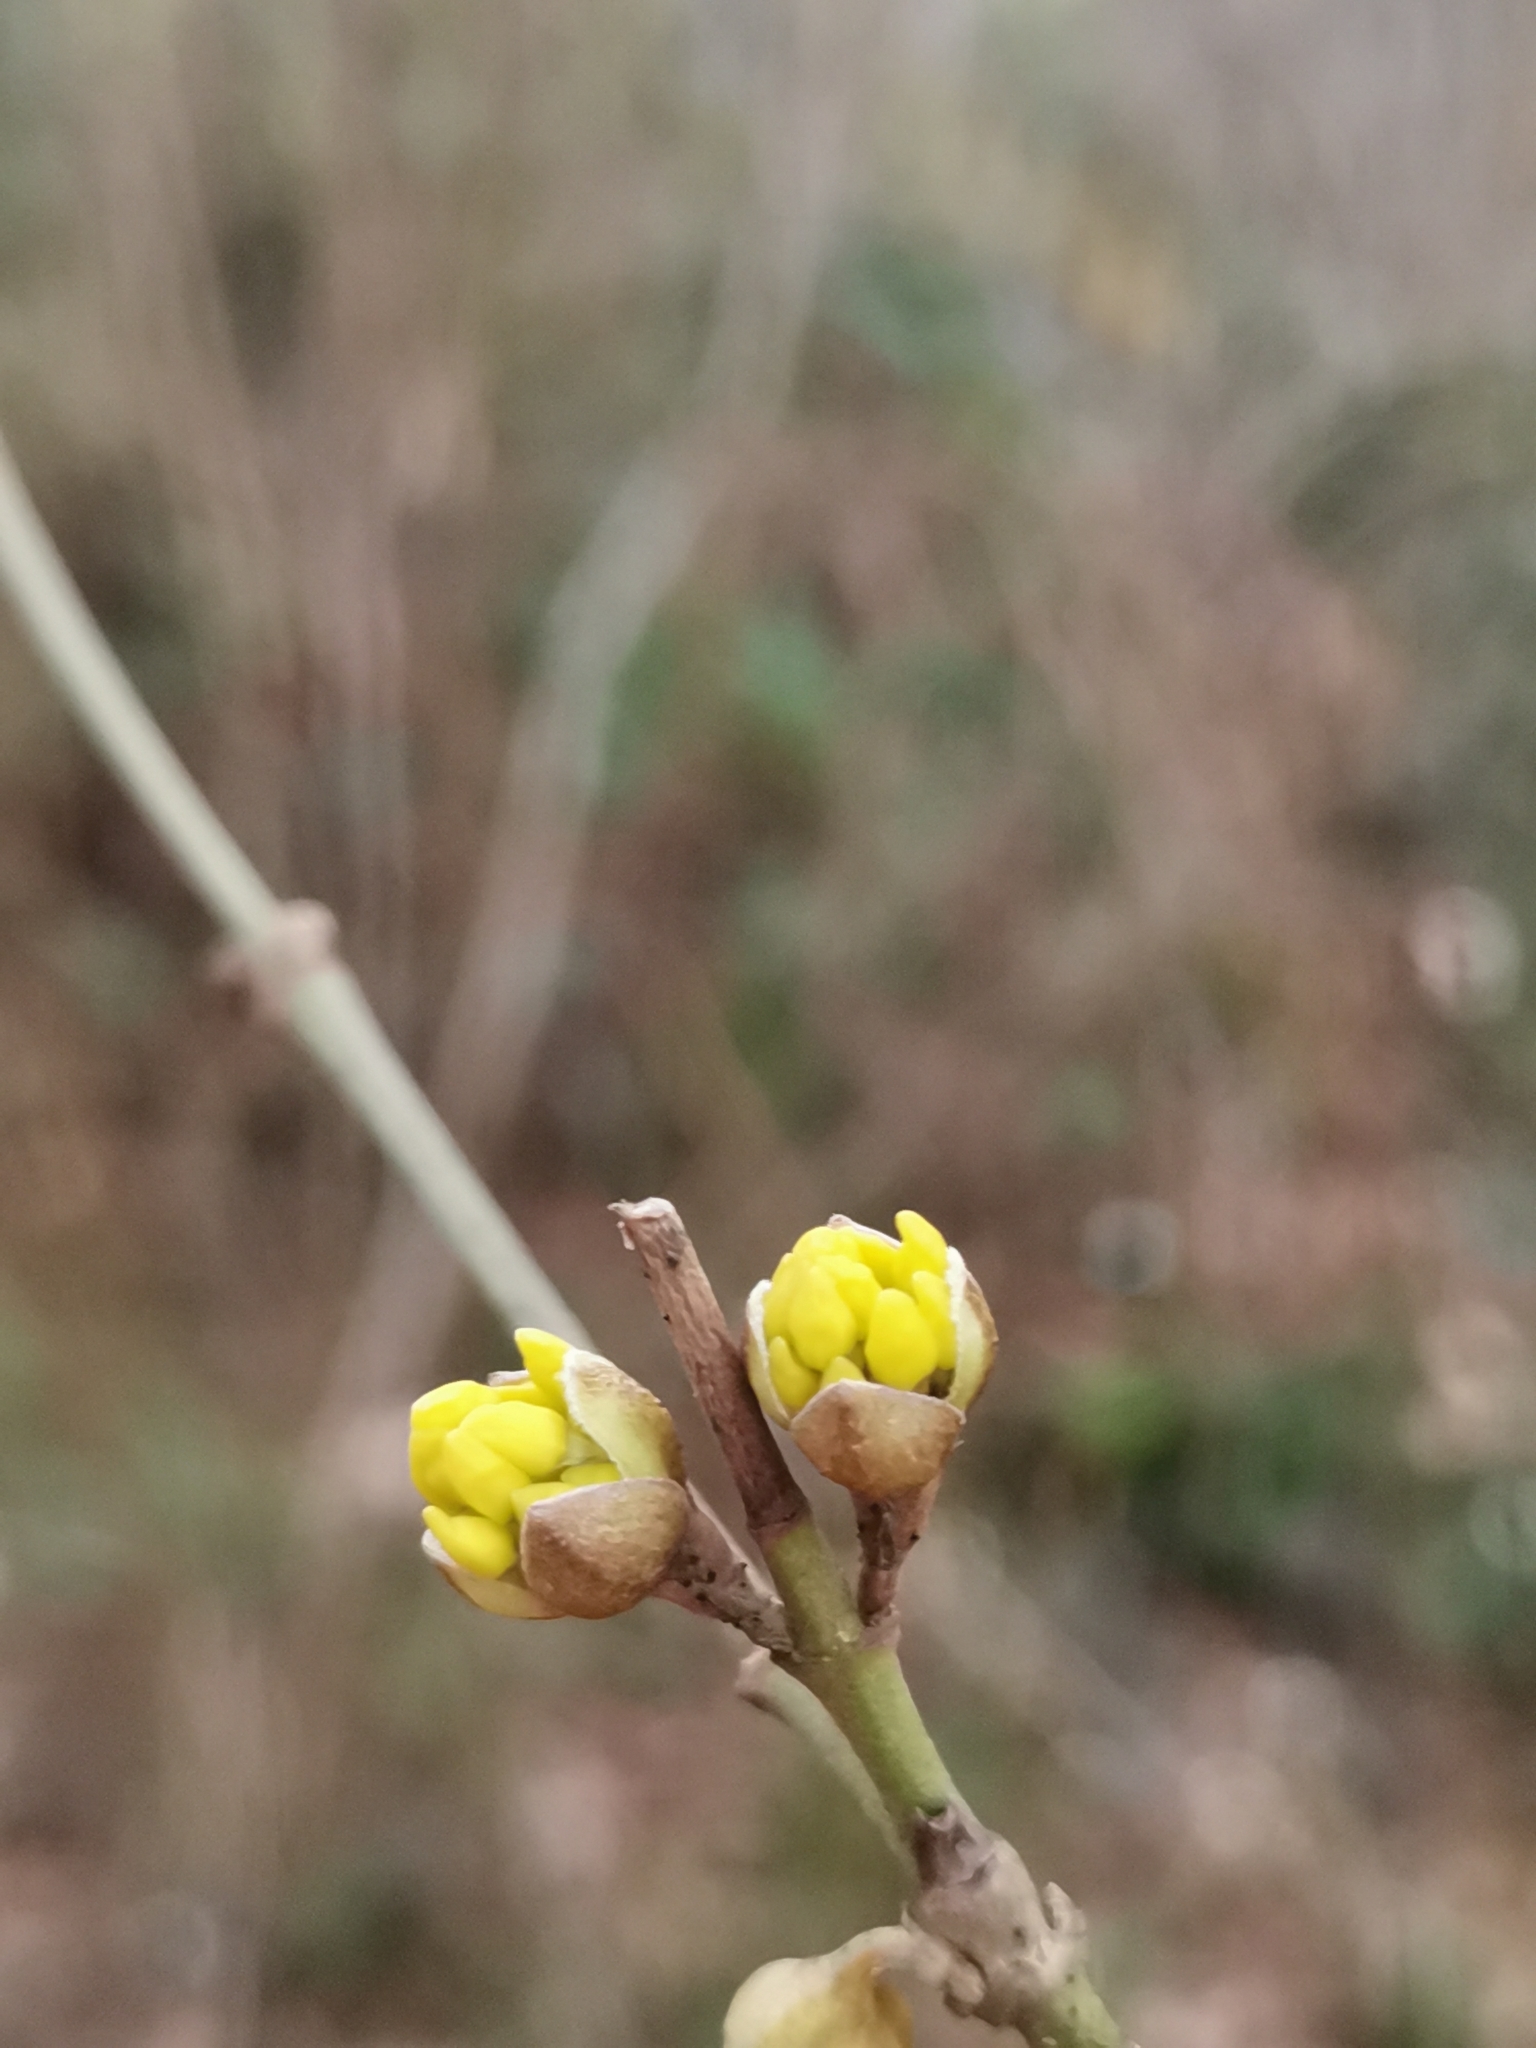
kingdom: Plantae
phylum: Tracheophyta
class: Magnoliopsida
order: Cornales
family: Cornaceae
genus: Cornus
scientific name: Cornus mas
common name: Cornelian-cherry
